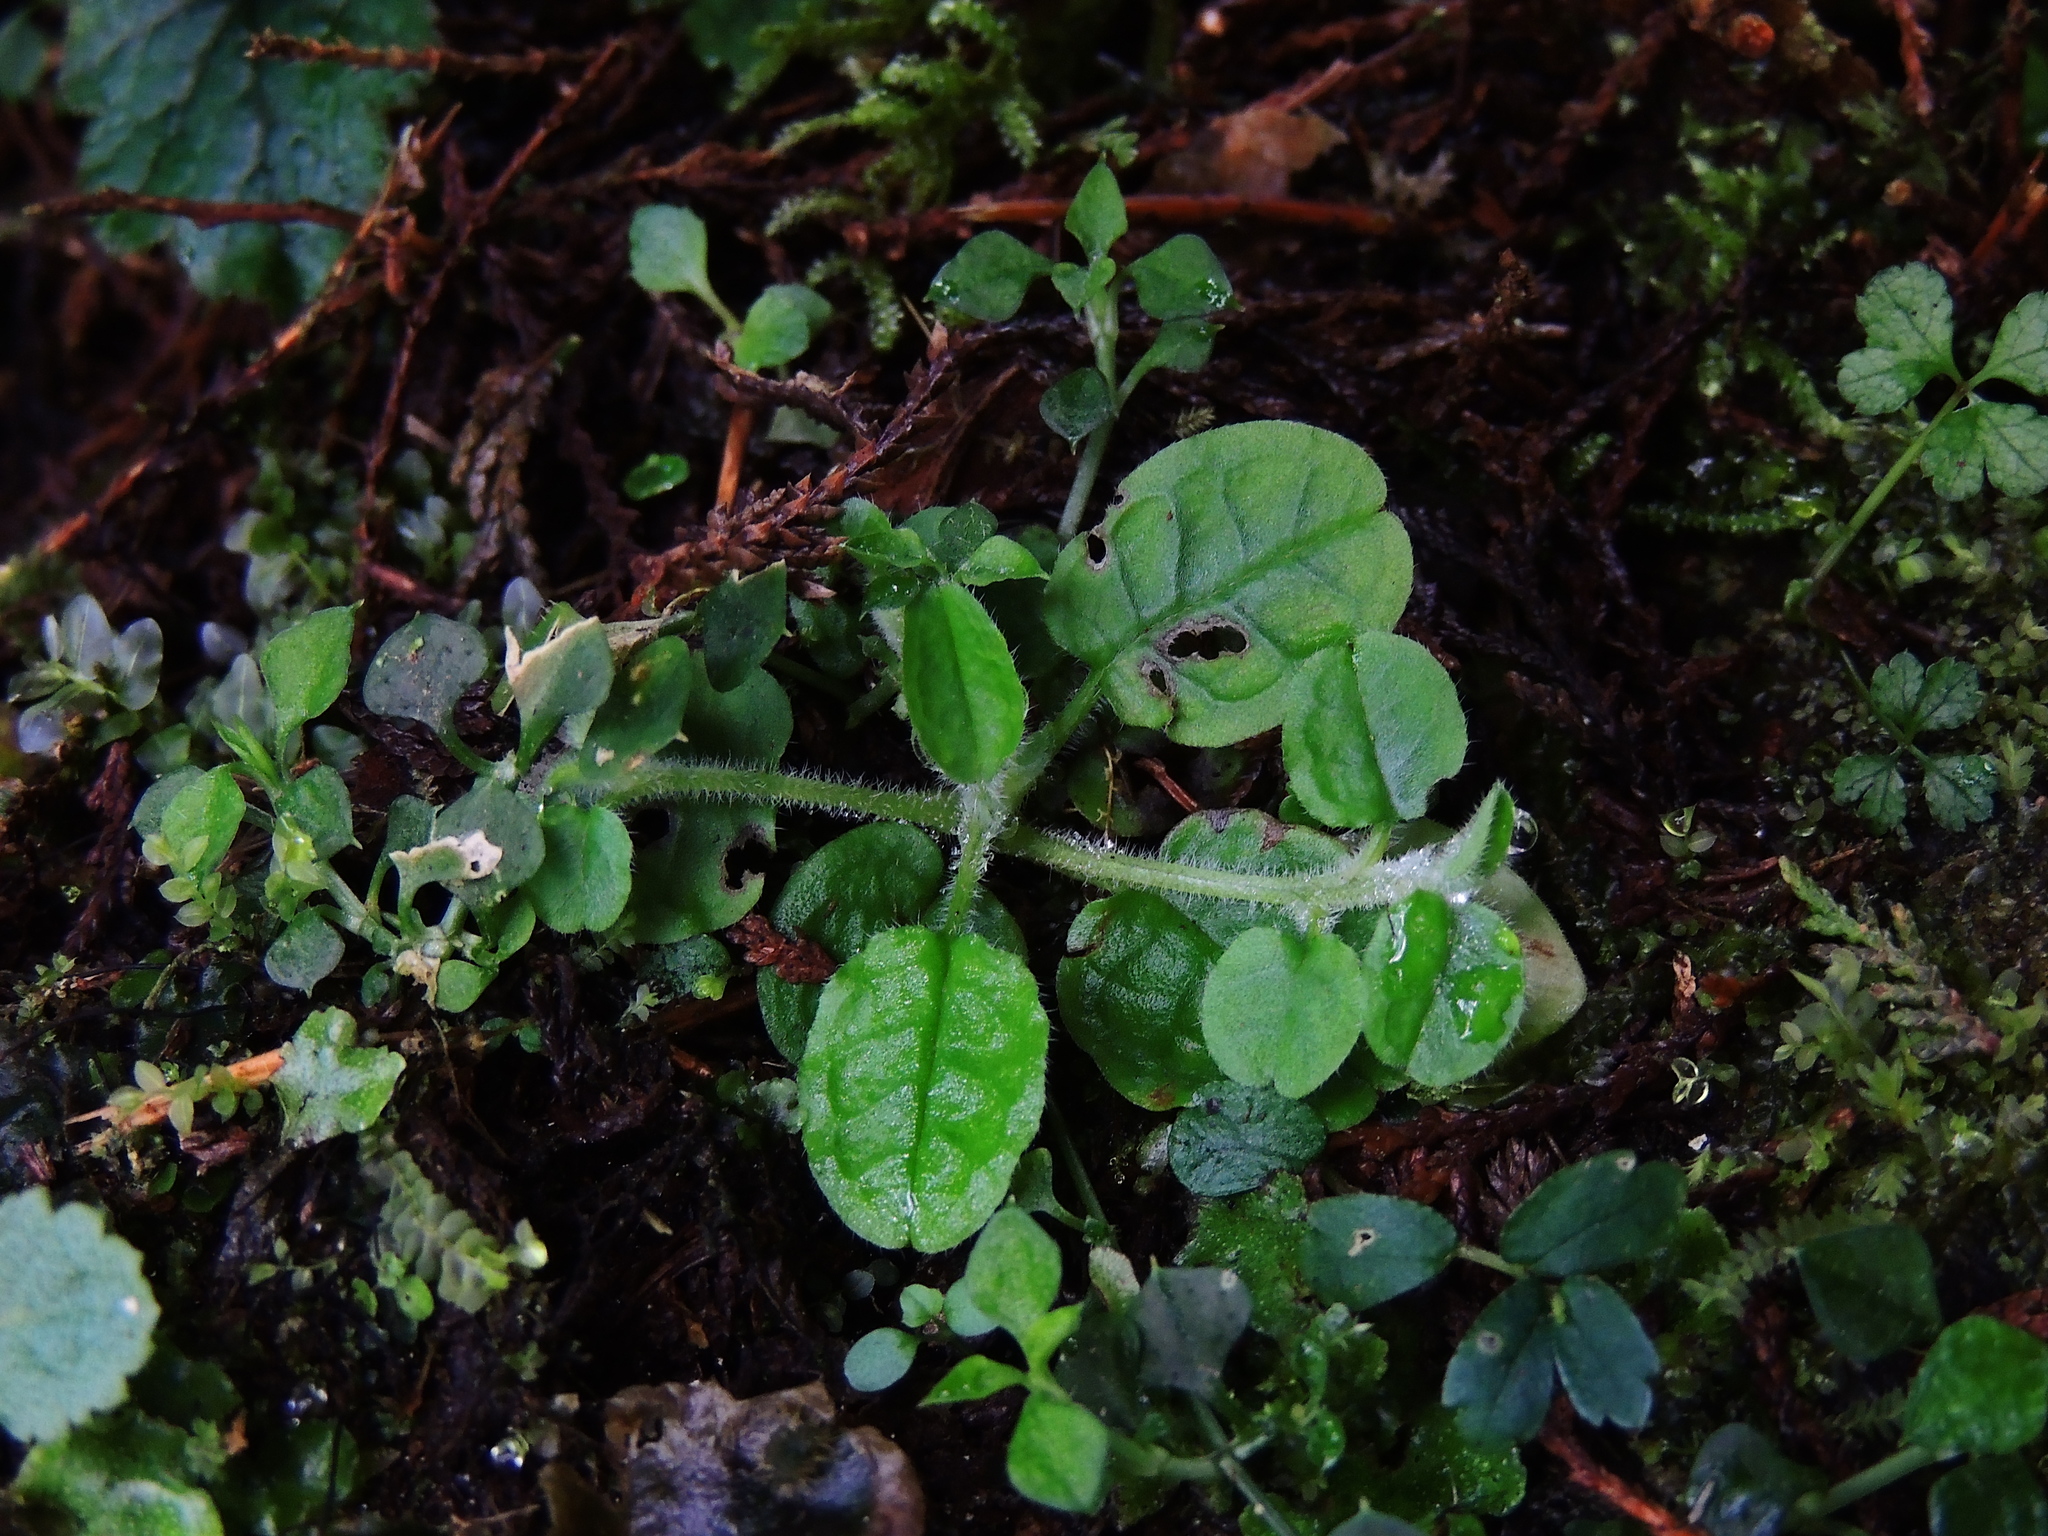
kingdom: Plantae
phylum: Tracheophyta
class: Magnoliopsida
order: Boraginales
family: Boraginaceae
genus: Trigonotis
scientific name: Trigonotis formosana
